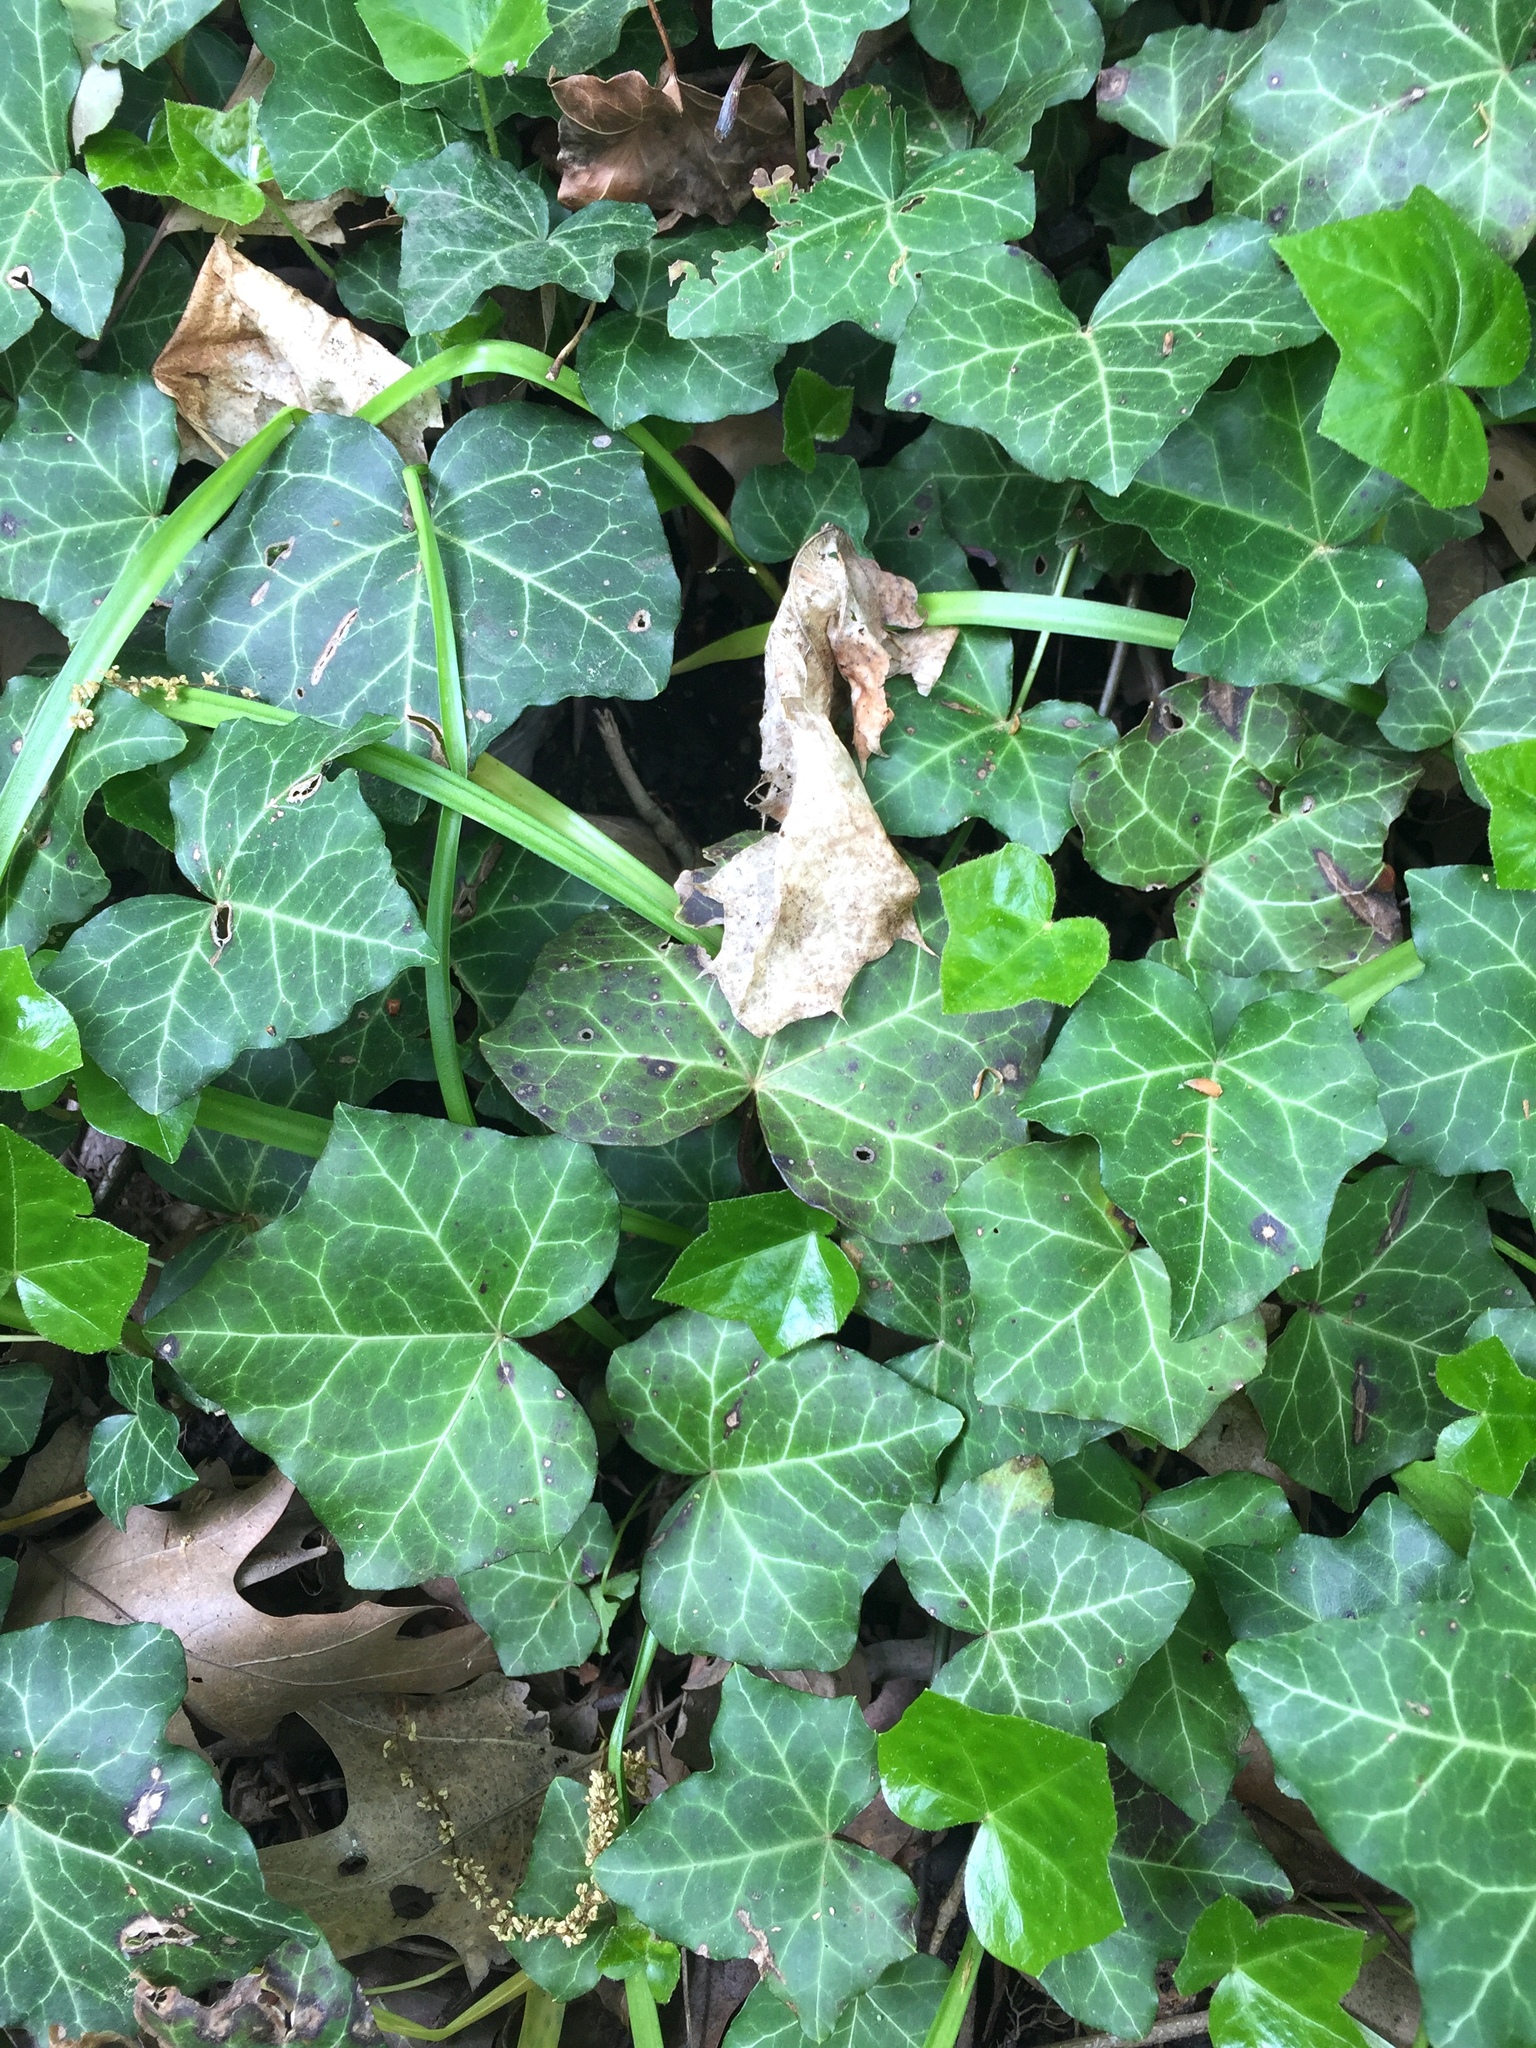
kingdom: Plantae
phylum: Tracheophyta
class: Magnoliopsida
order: Apiales
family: Araliaceae
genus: Hedera
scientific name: Hedera helix
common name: Ivy
